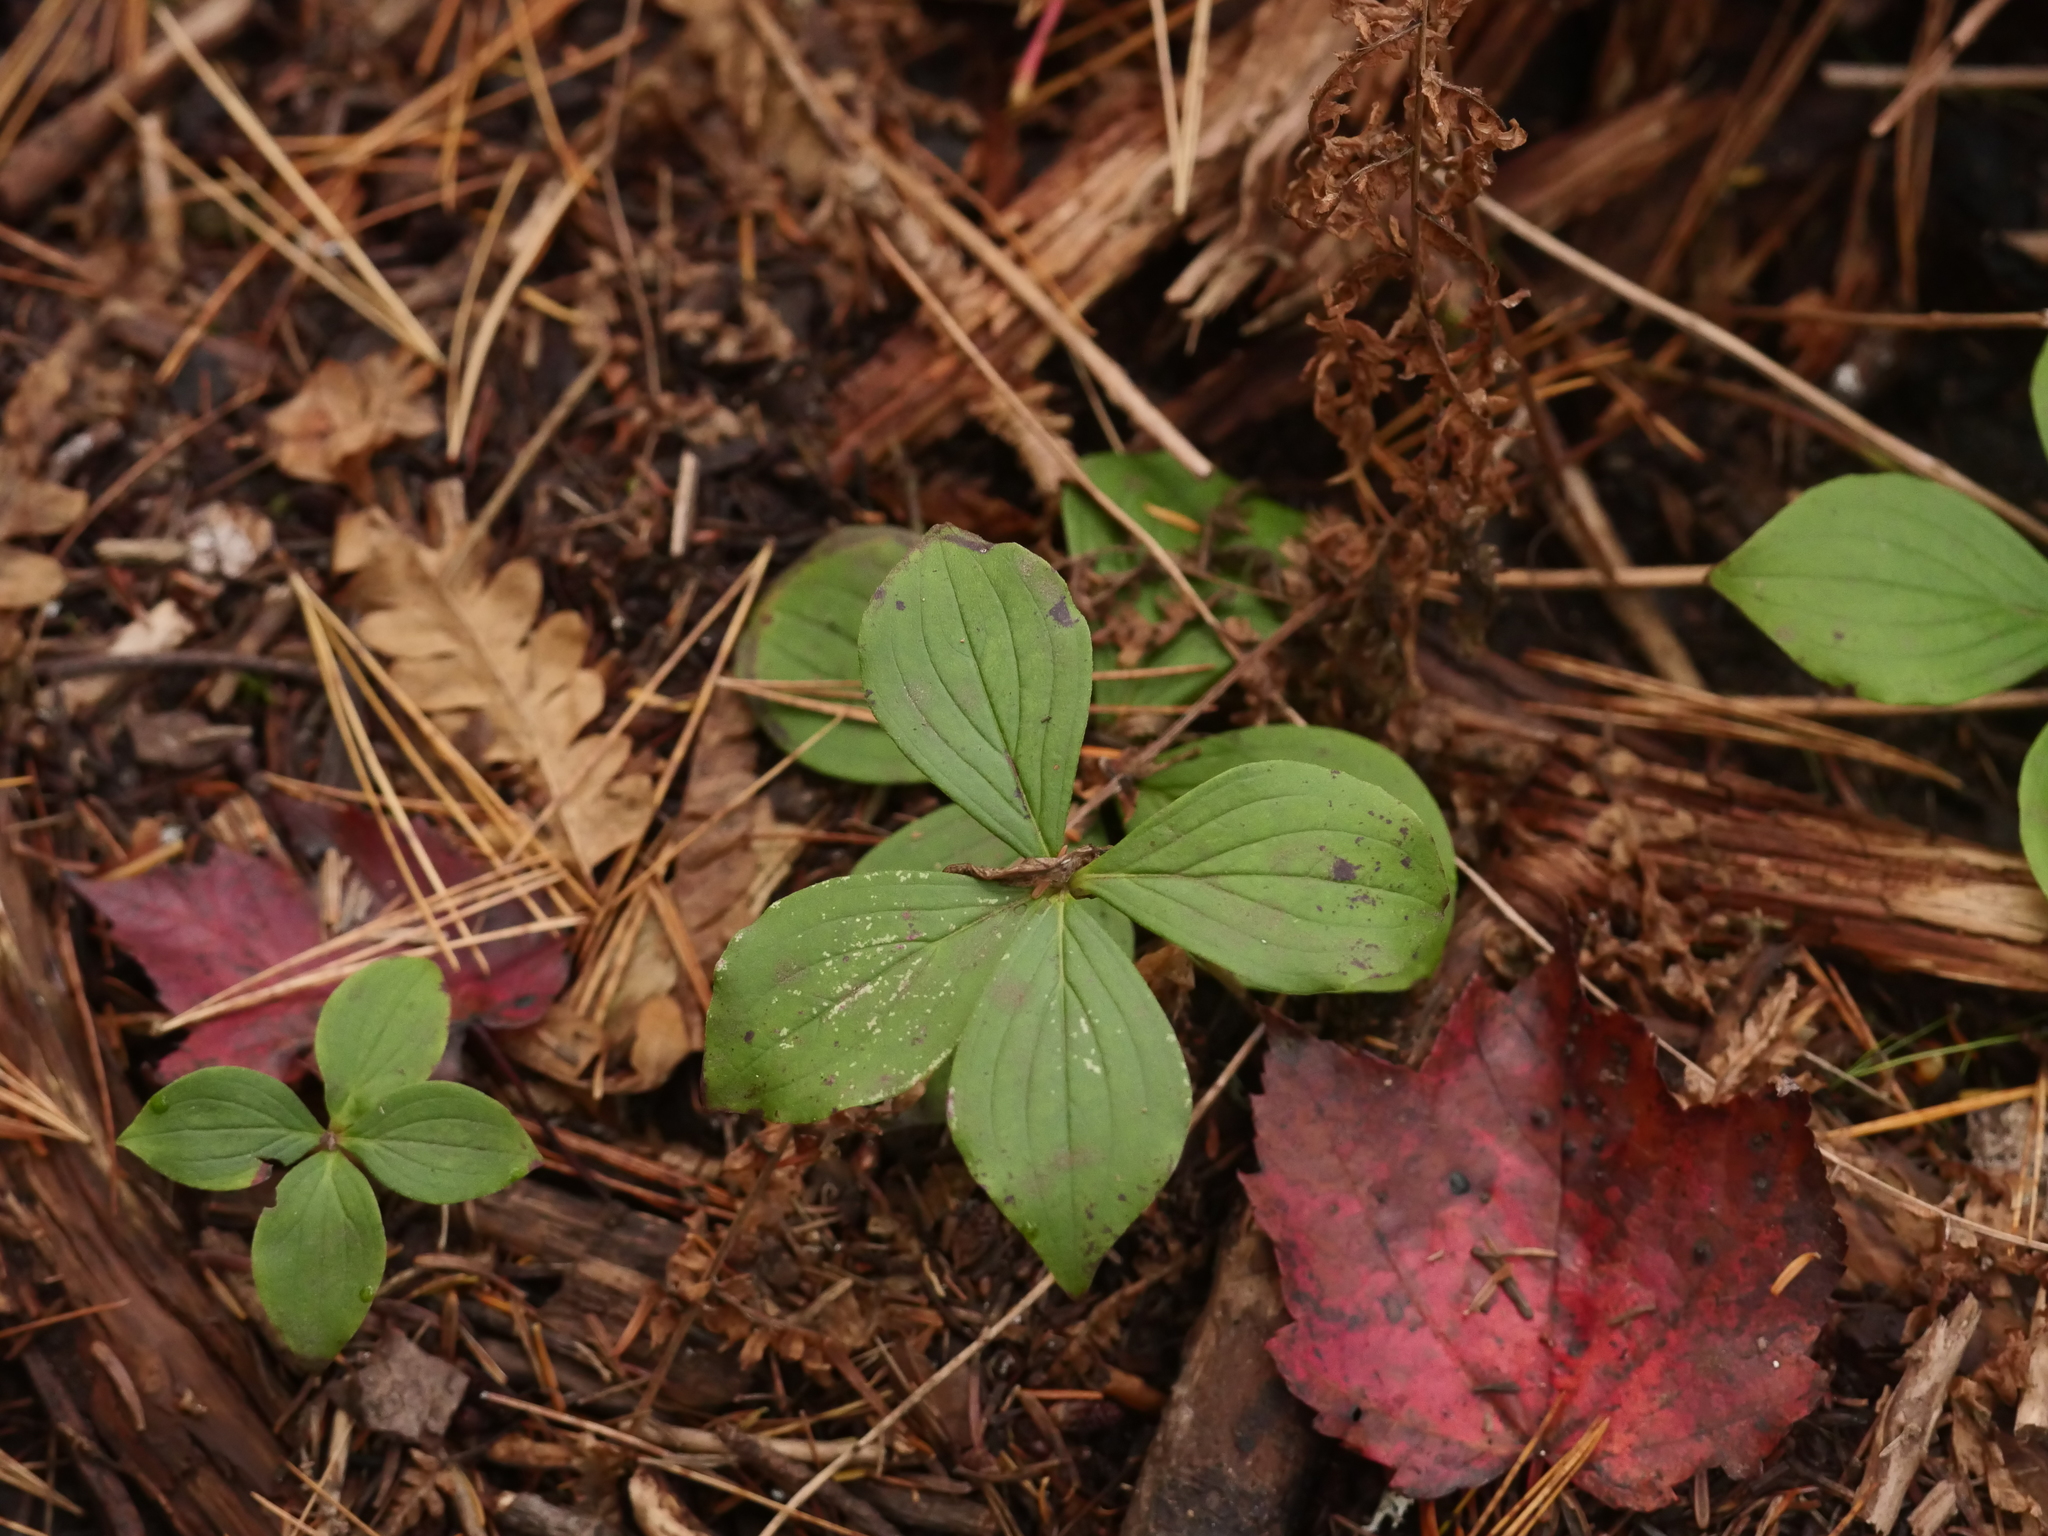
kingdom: Plantae
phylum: Tracheophyta
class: Magnoliopsida
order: Cornales
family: Cornaceae
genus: Cornus
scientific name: Cornus canadensis
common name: Creeping dogwood
